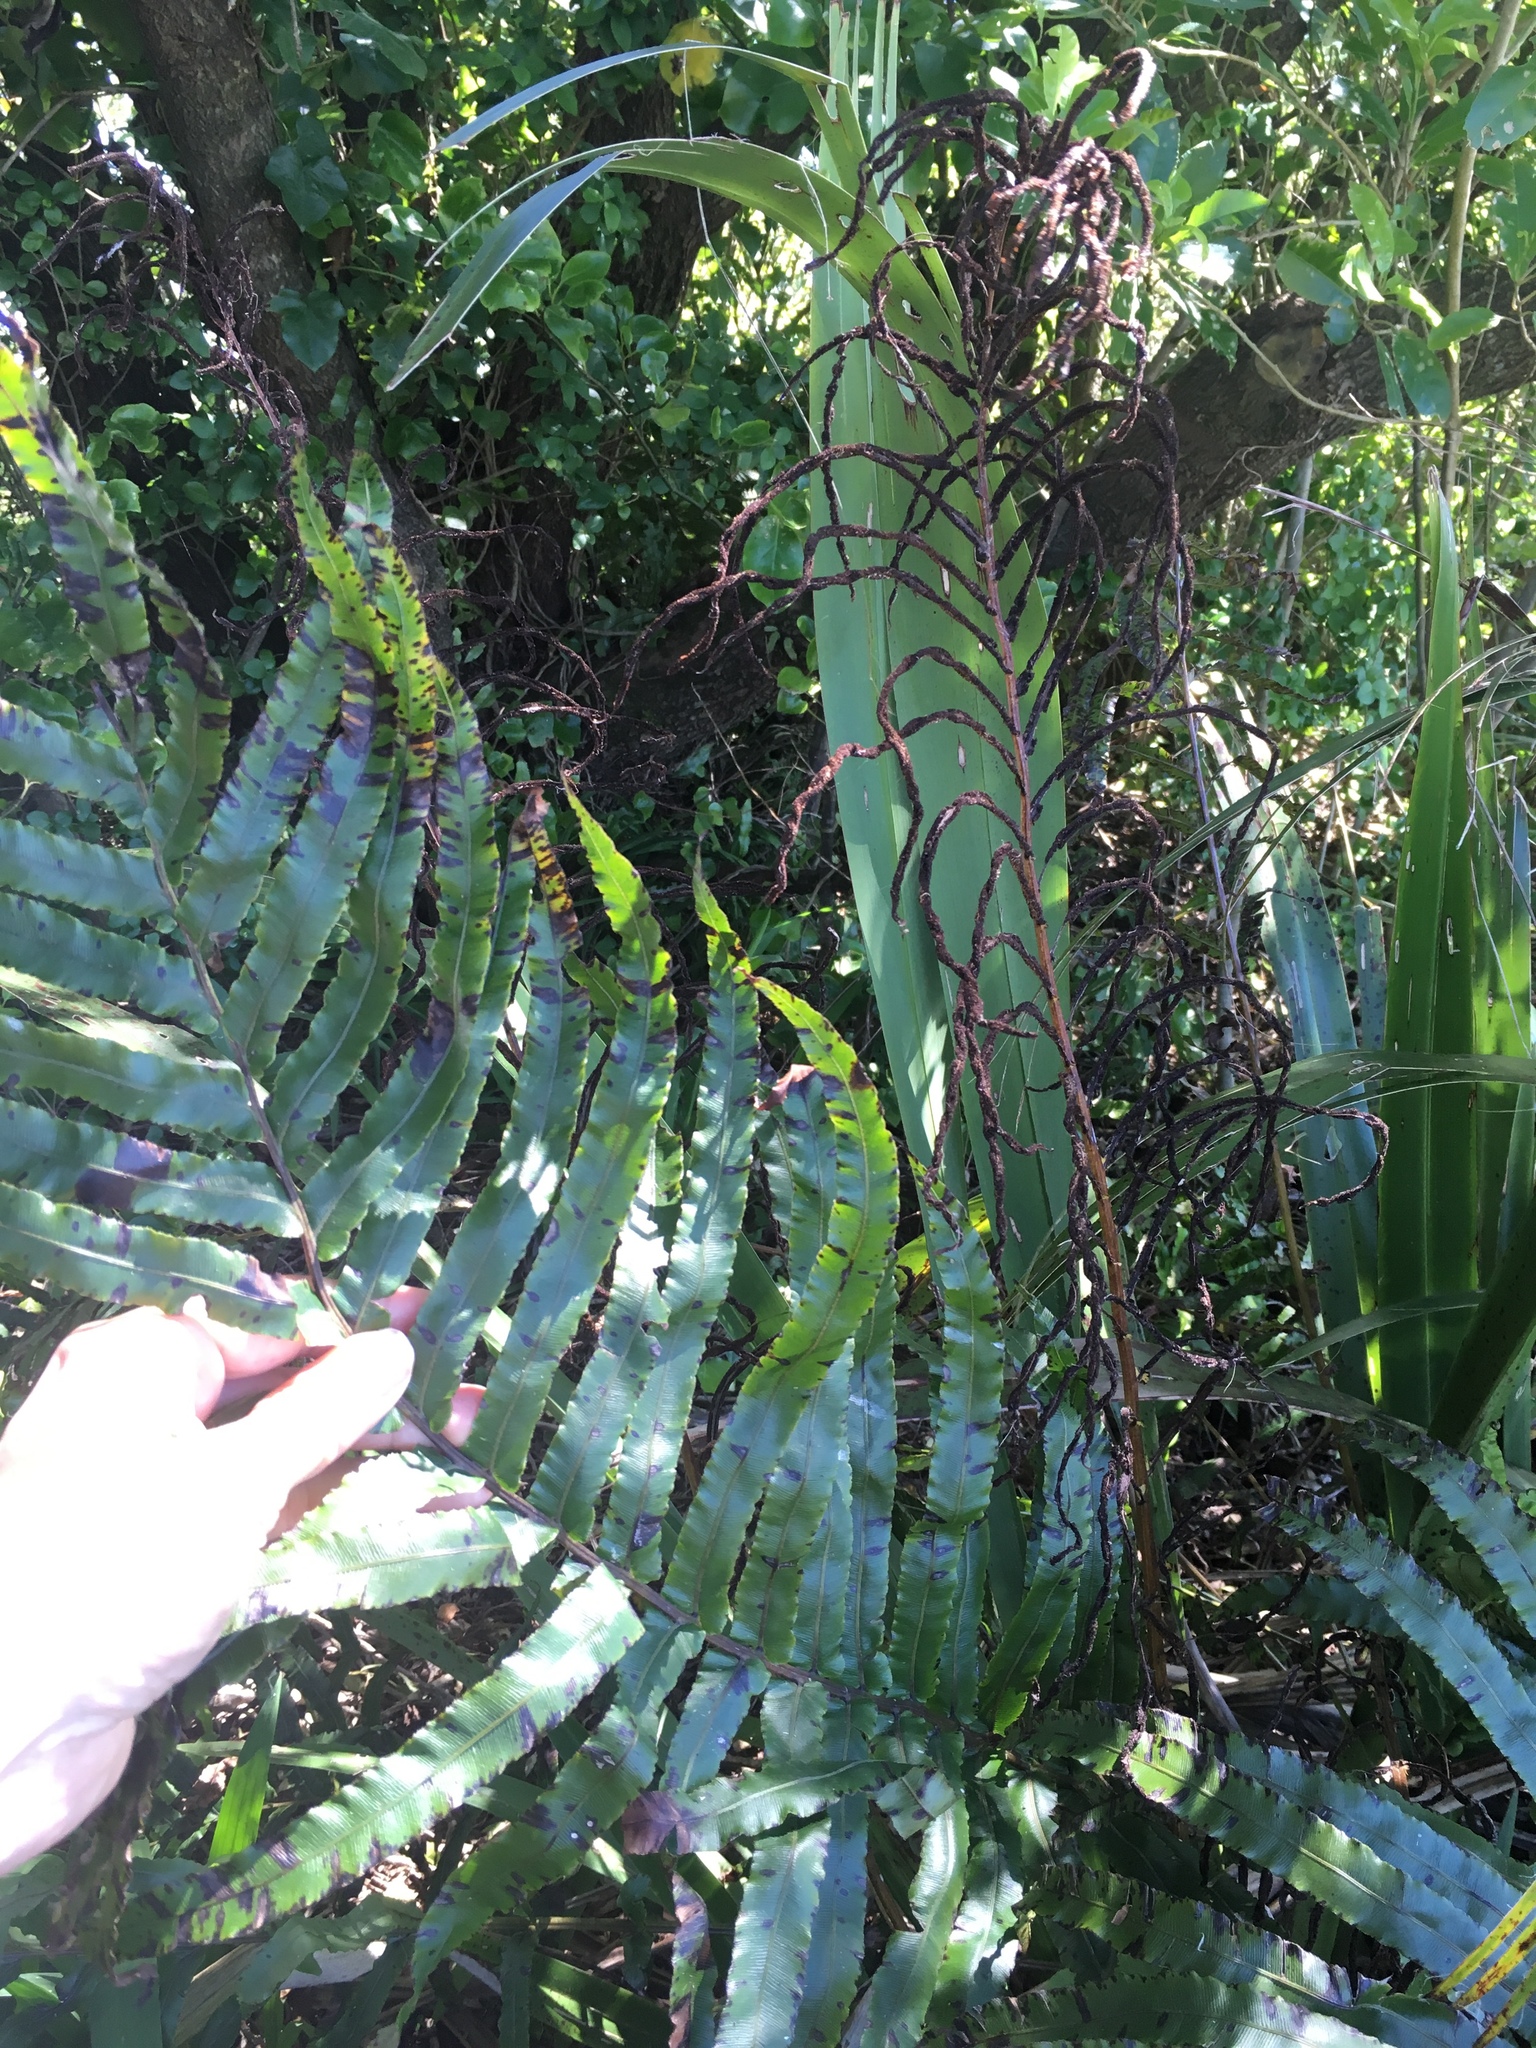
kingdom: Plantae
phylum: Tracheophyta
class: Polypodiopsida
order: Polypodiales
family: Blechnaceae
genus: Parablechnum
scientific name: Parablechnum novae-zelandiae
